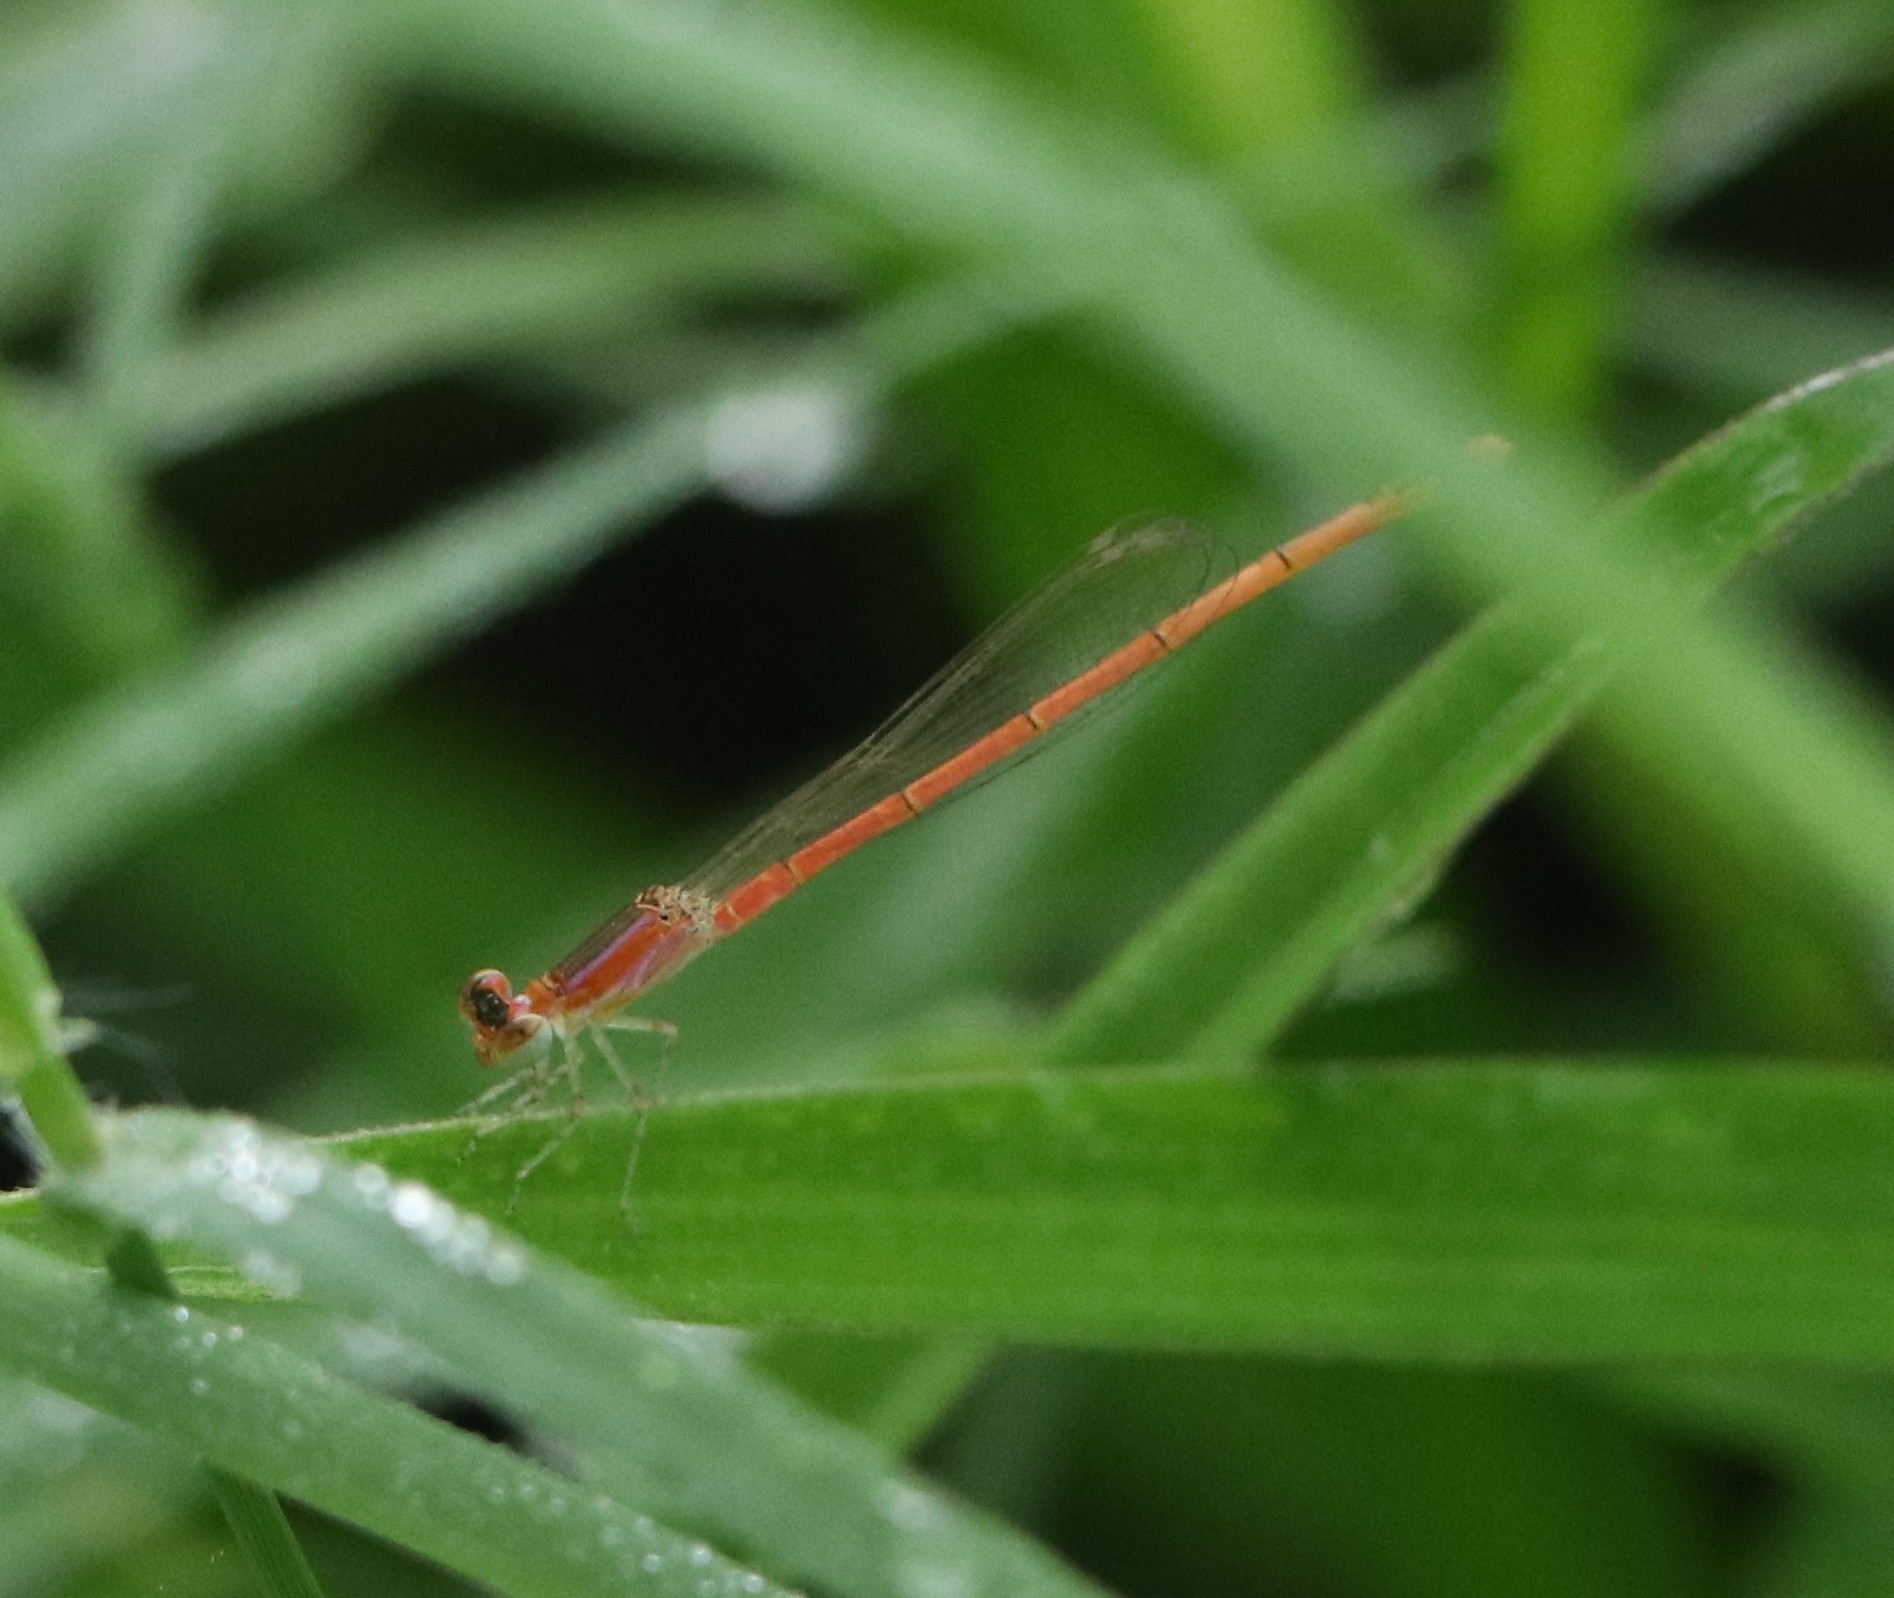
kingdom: Animalia
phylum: Arthropoda
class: Insecta
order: Odonata
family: Coenagrionidae
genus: Agriocnemis
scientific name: Agriocnemis pygmaea
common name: Pygmy wisp
